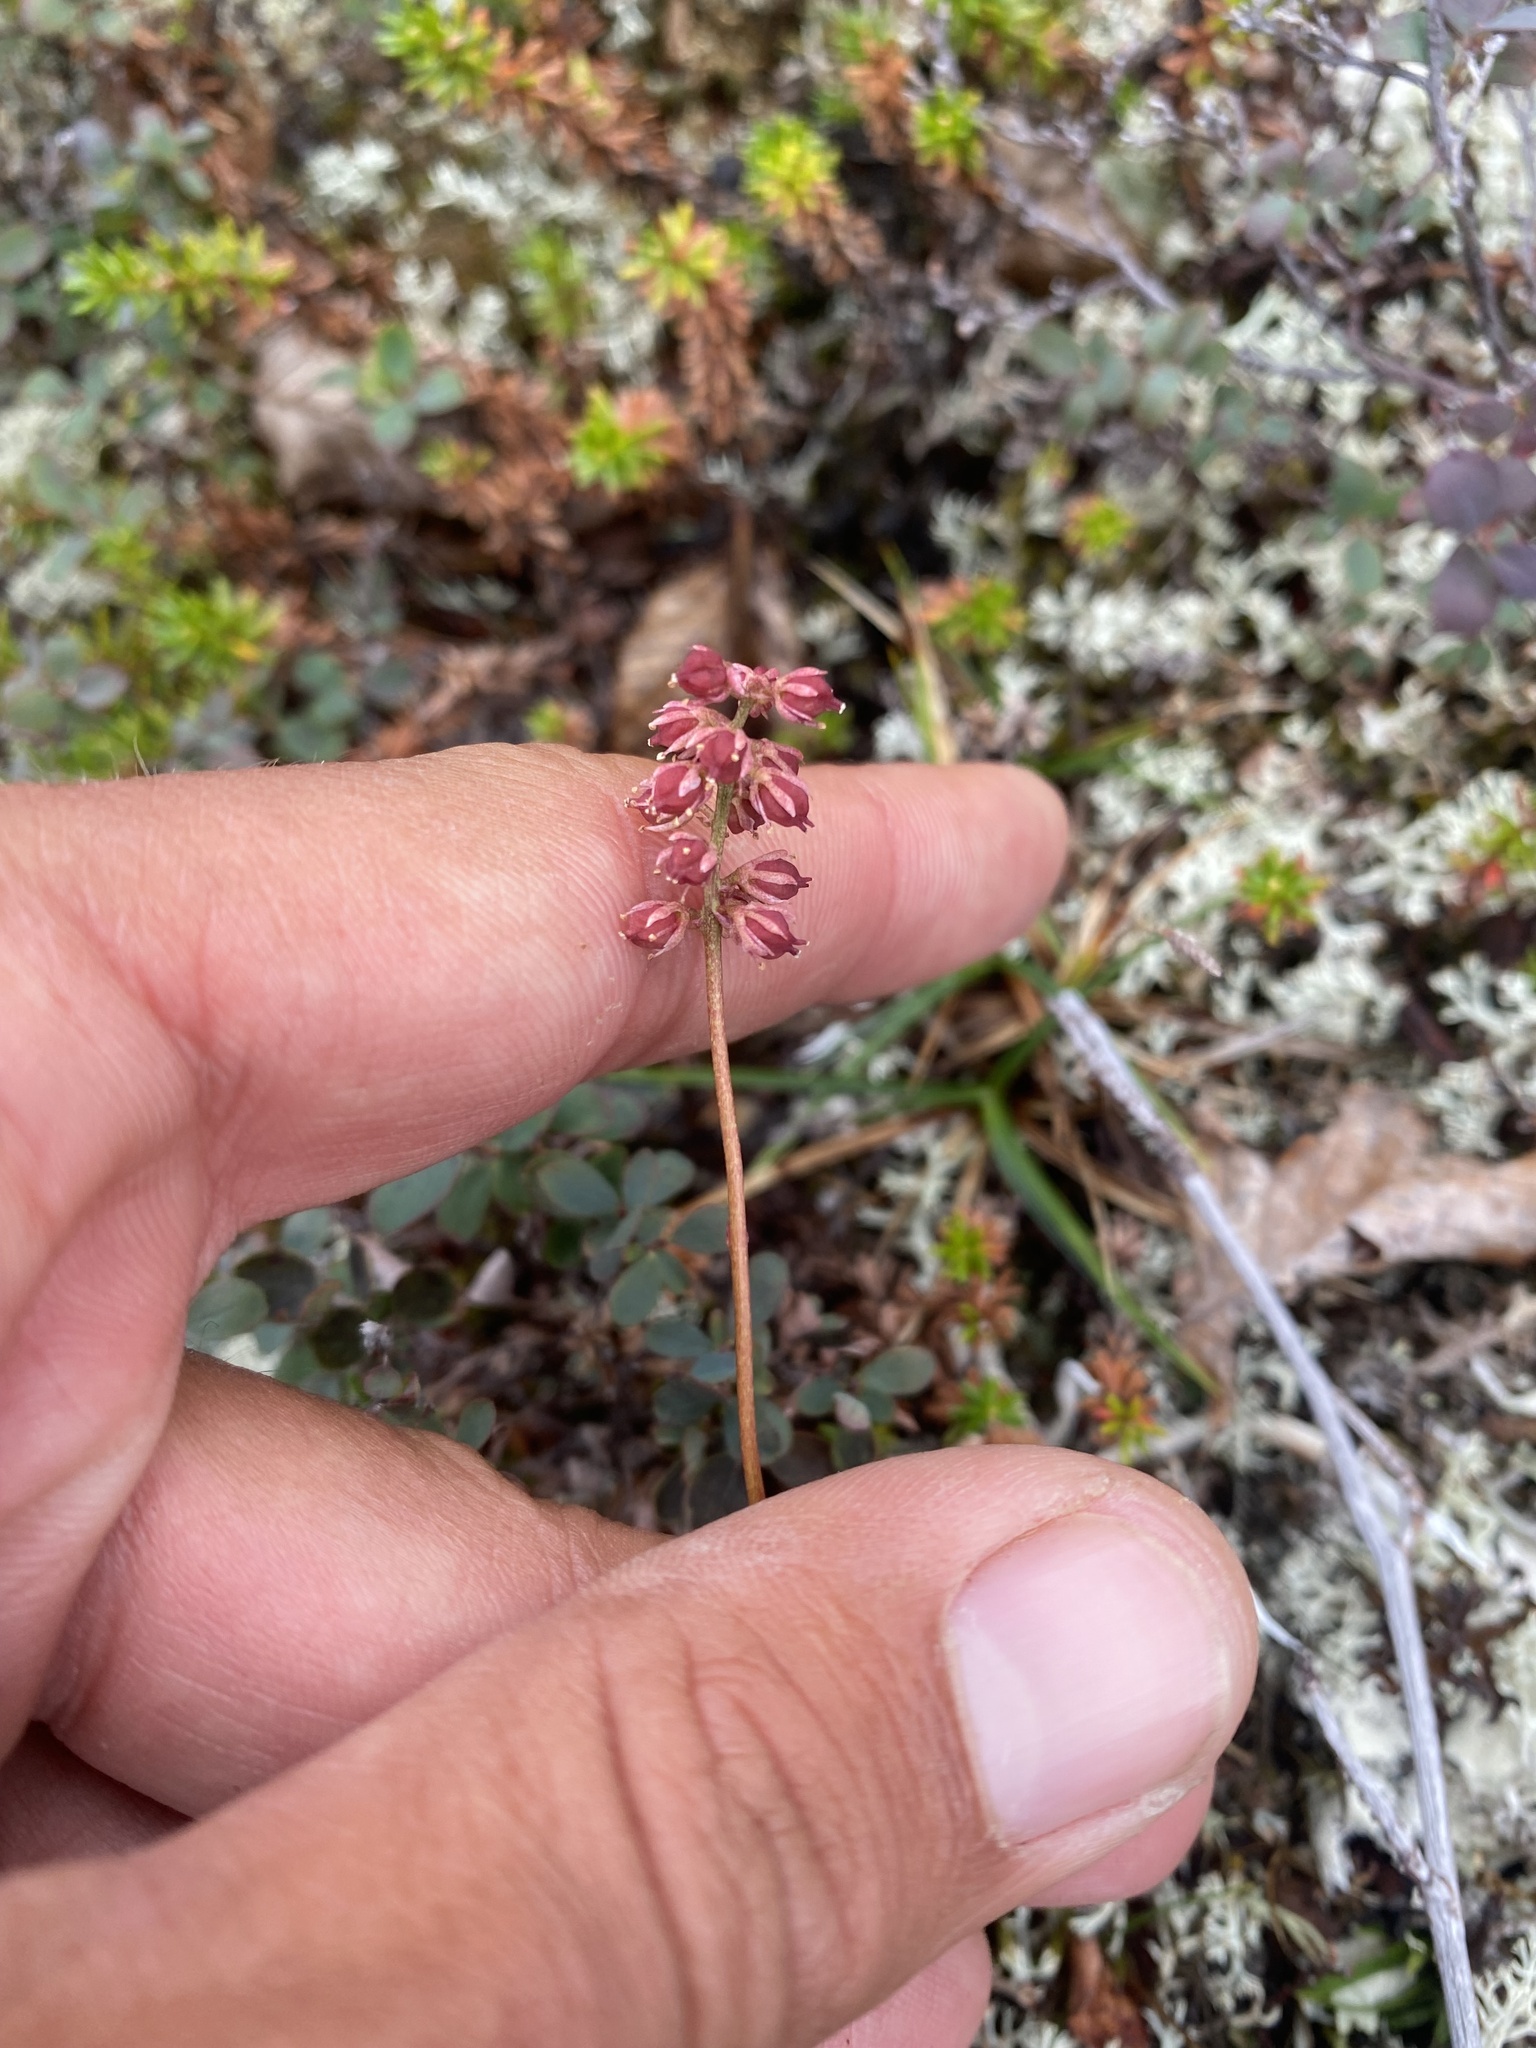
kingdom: Plantae
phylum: Tracheophyta
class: Liliopsida
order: Alismatales
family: Tofieldiaceae
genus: Tofieldia
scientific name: Tofieldia coccinea
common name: Northern false asphodel
